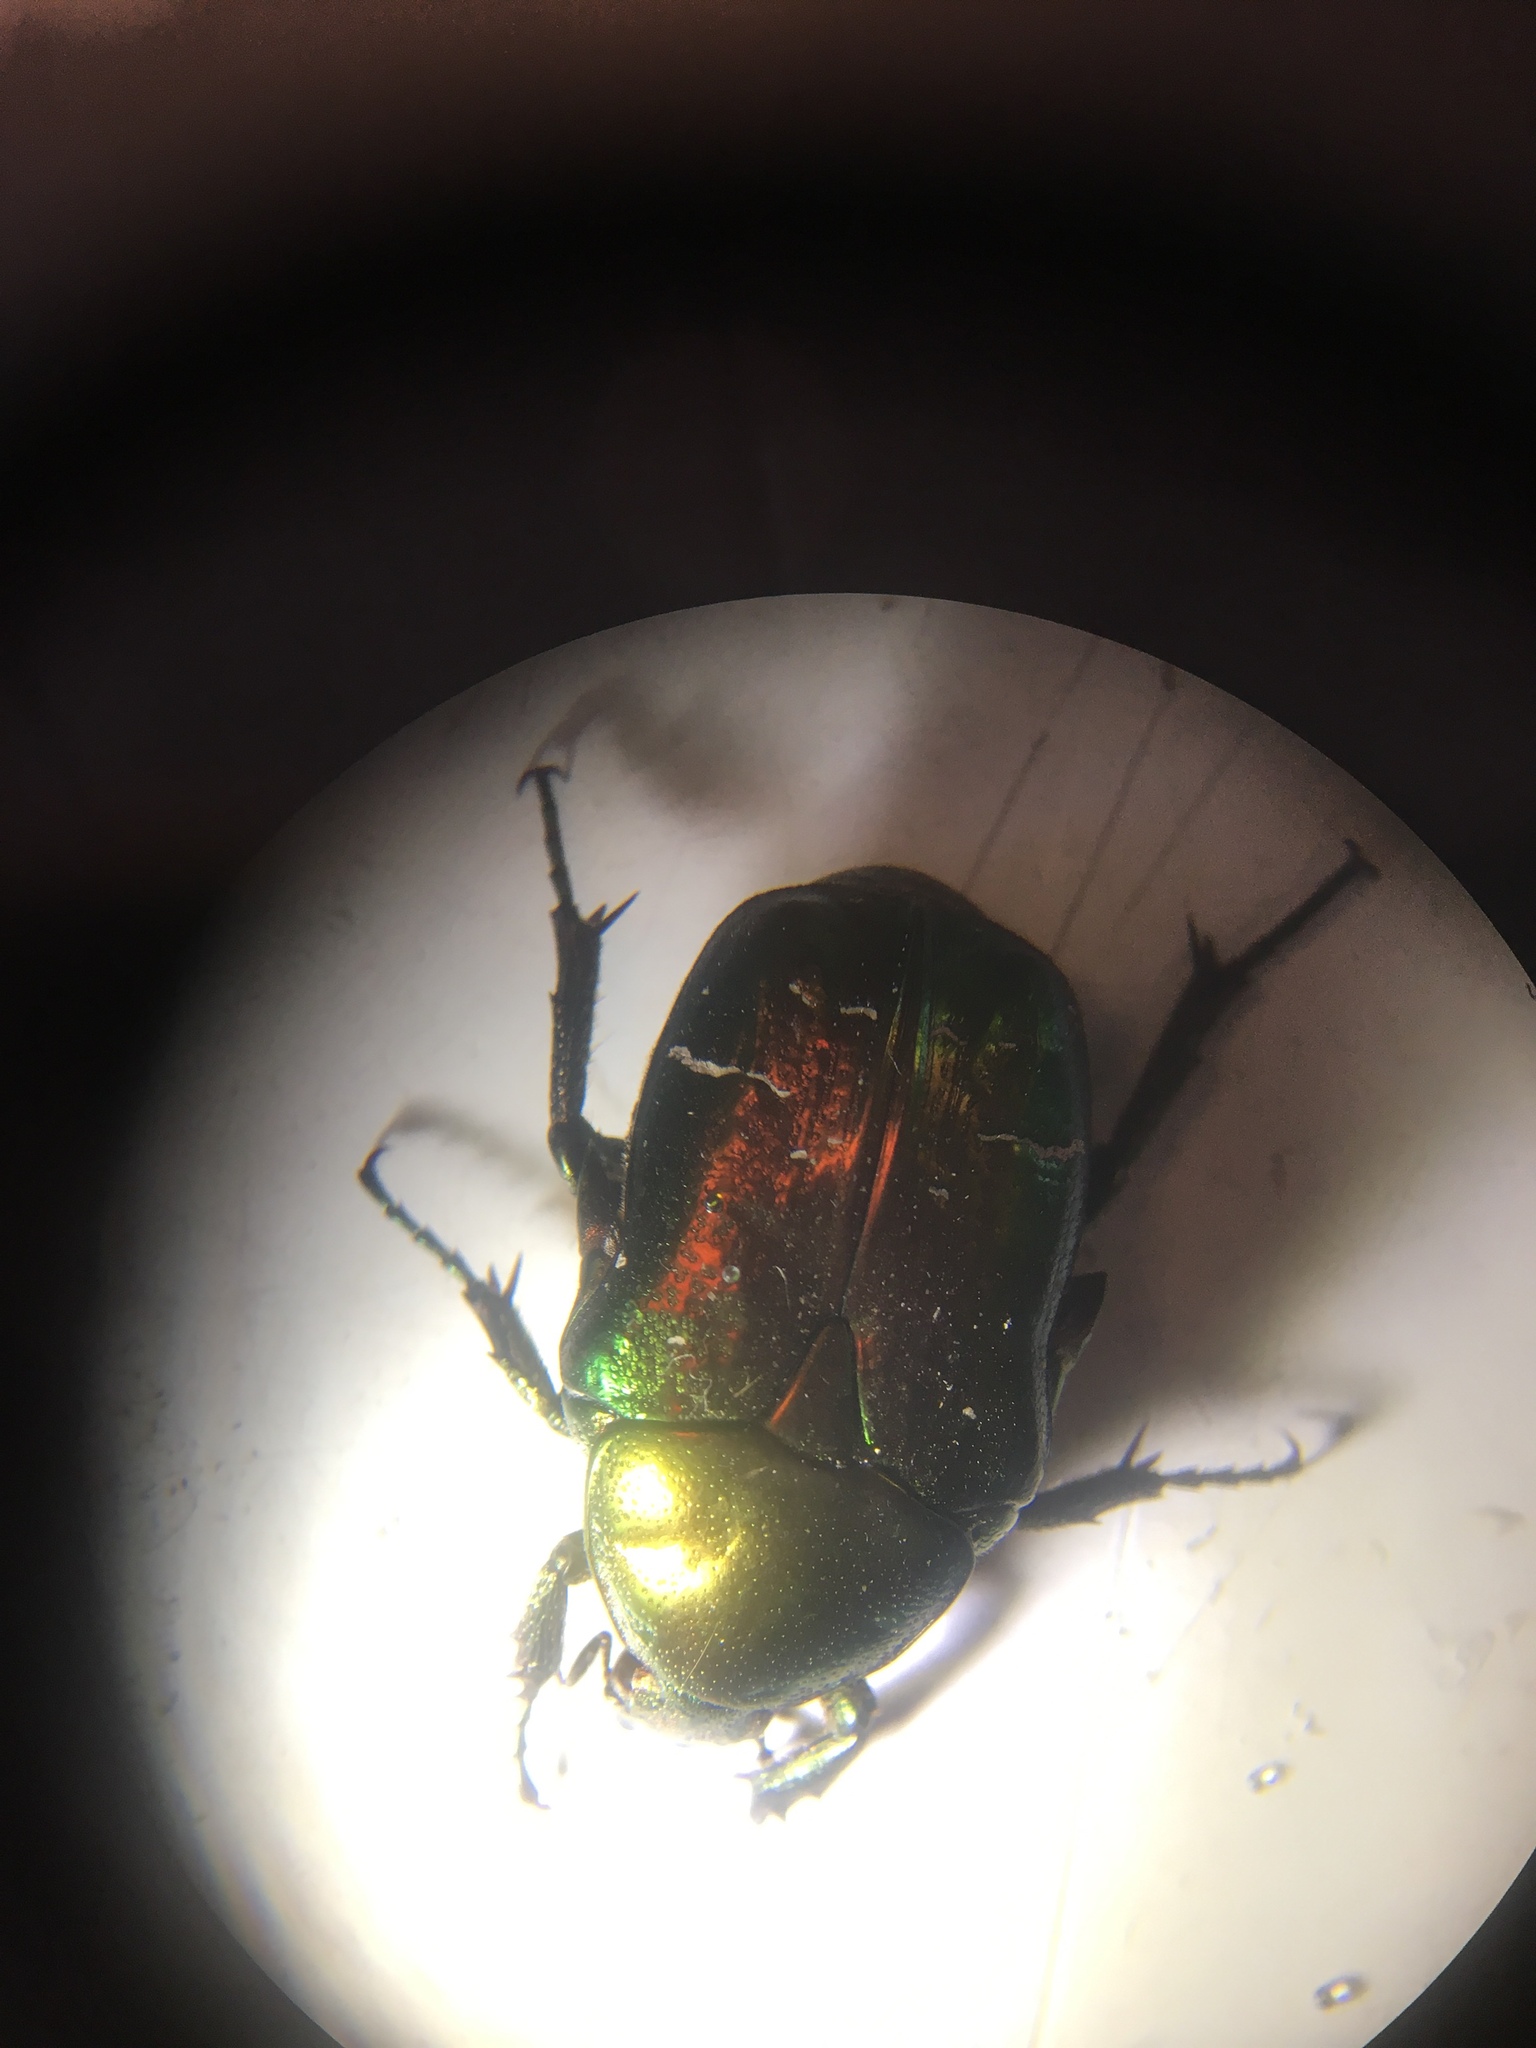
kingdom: Animalia
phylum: Arthropoda
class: Insecta
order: Coleoptera
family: Scarabaeidae
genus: Cetonia
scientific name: Cetonia aurata
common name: Rose chafer
